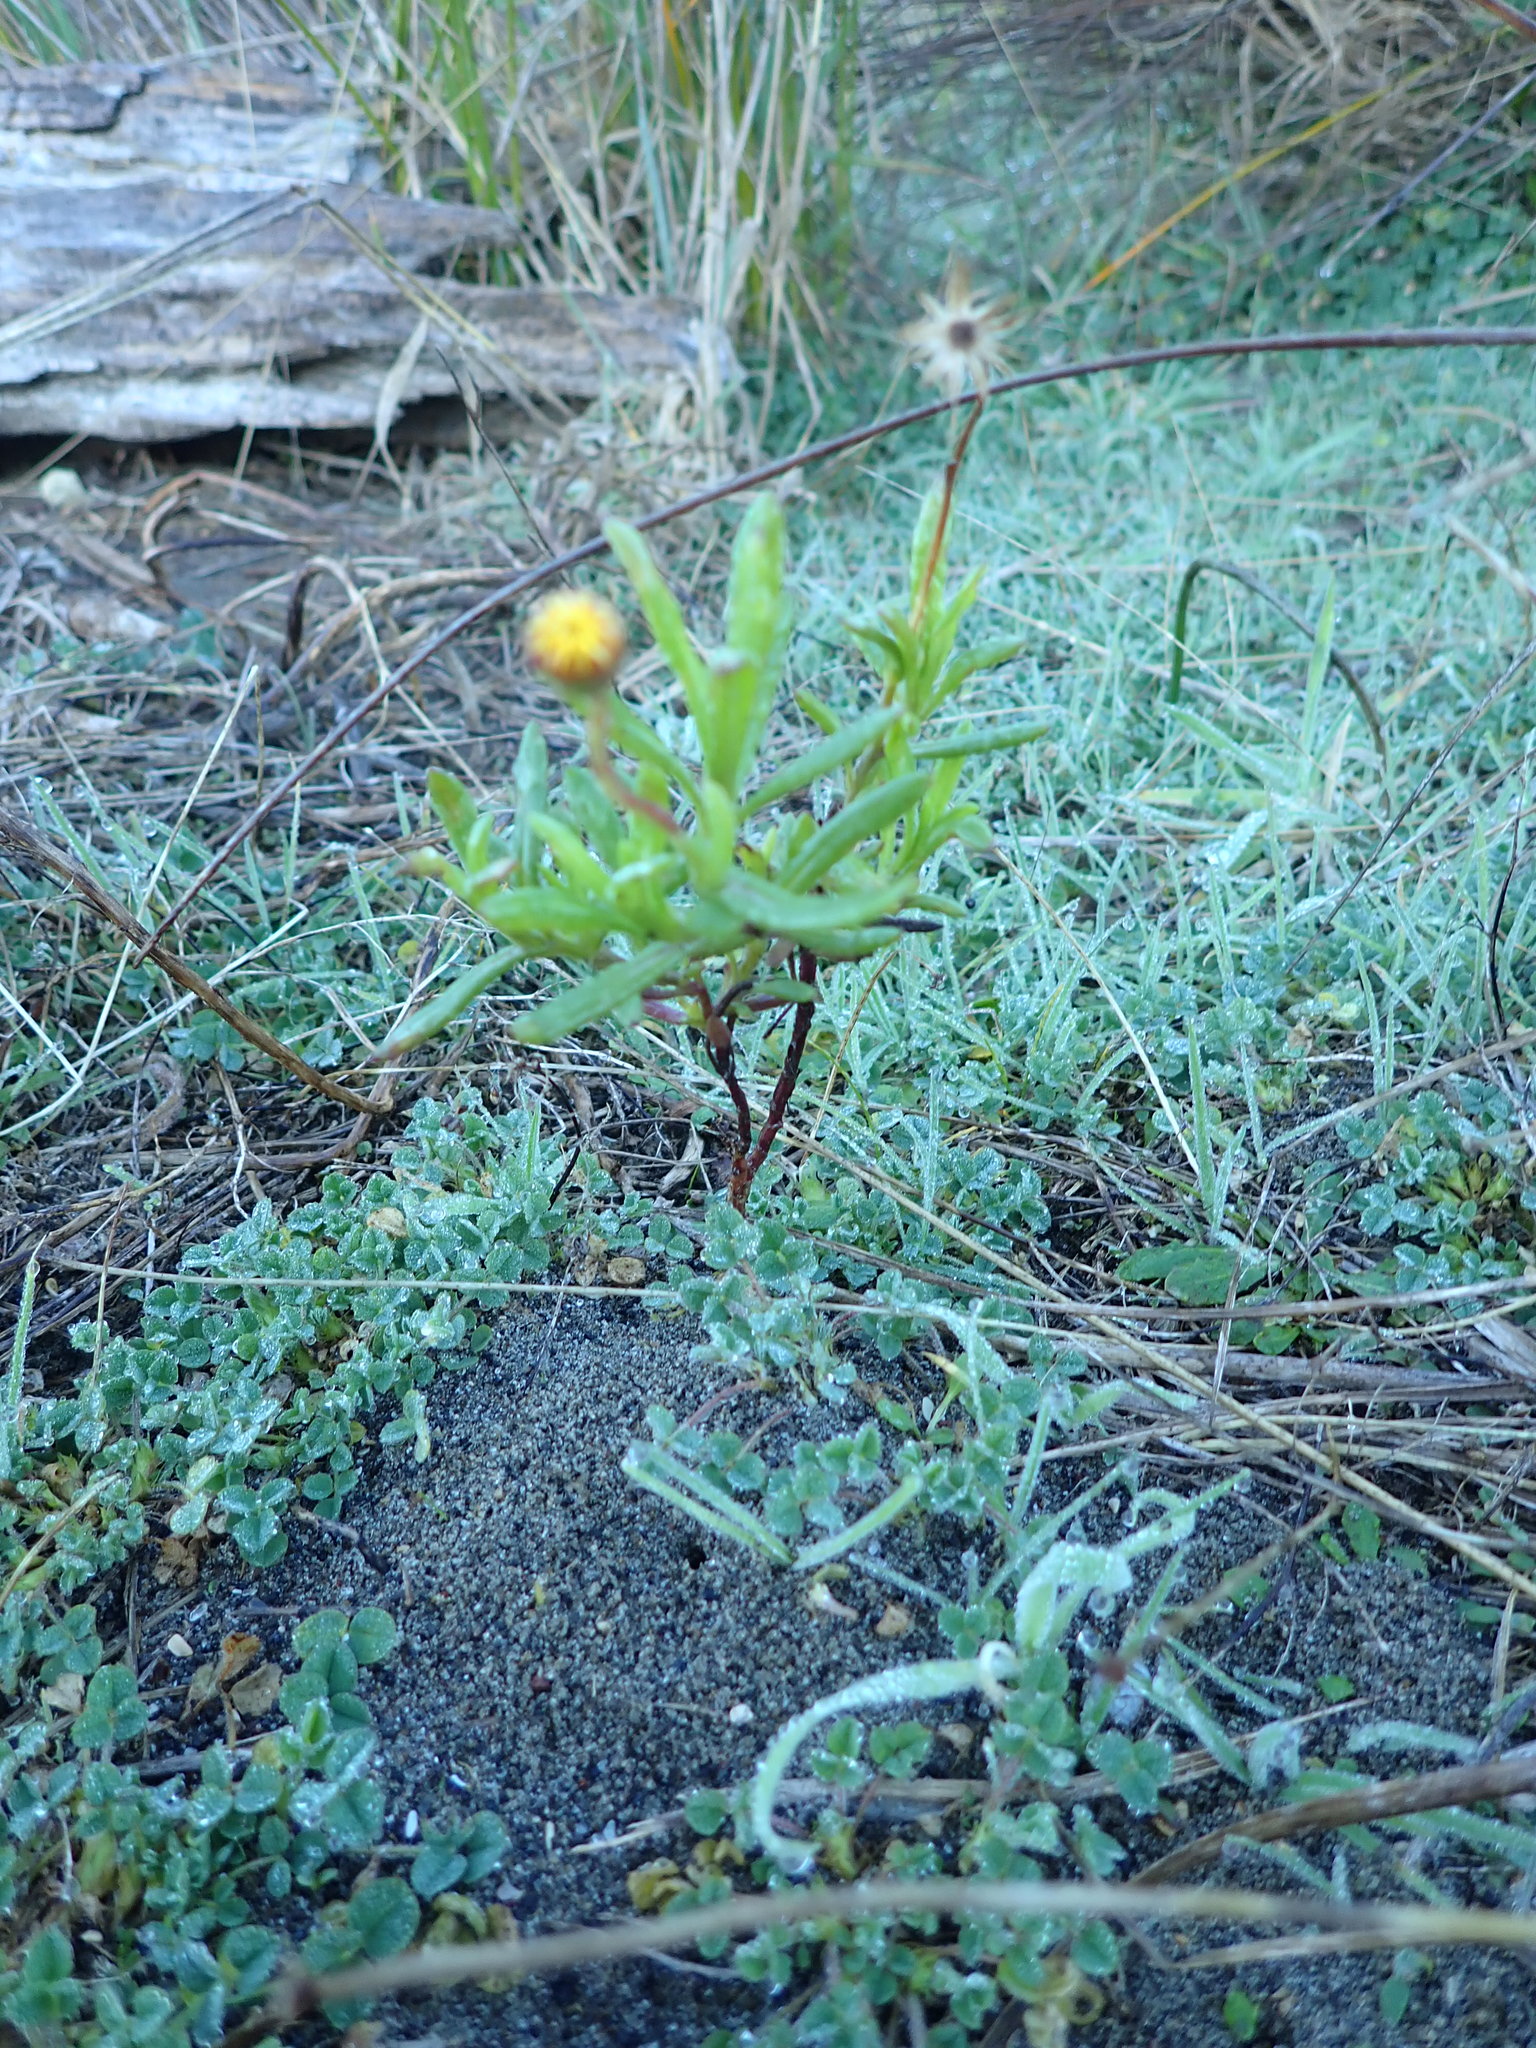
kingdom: Plantae
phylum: Tracheophyta
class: Magnoliopsida
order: Asterales
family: Asteraceae
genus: Senecio
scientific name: Senecio skirrhodon
